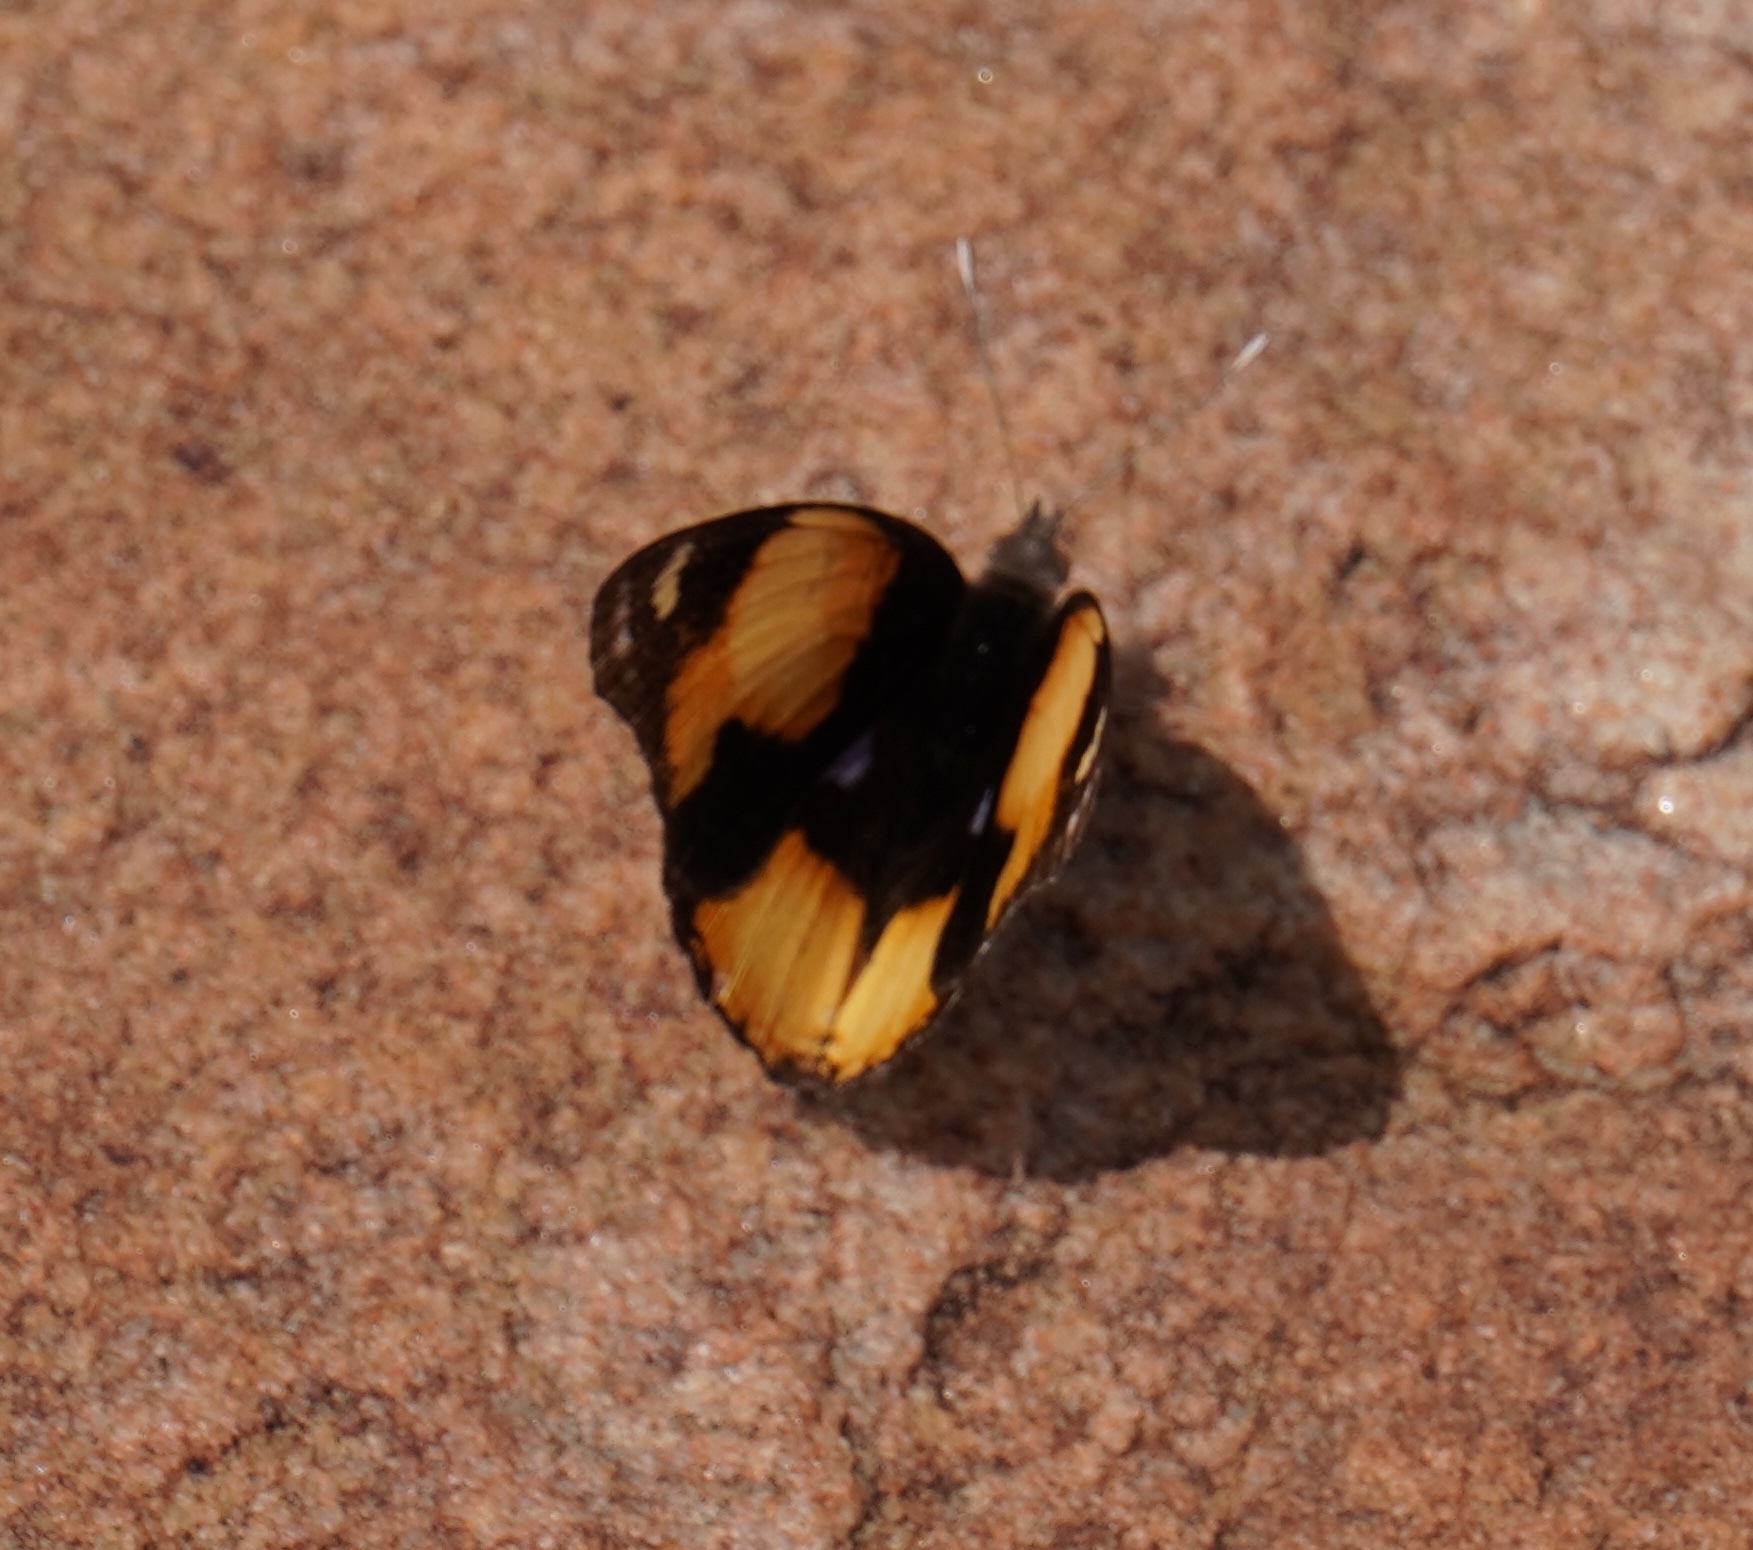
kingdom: Animalia
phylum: Arthropoda
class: Insecta
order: Lepidoptera
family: Nymphalidae
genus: Junonia
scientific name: Junonia hierta
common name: Yellow pansy
